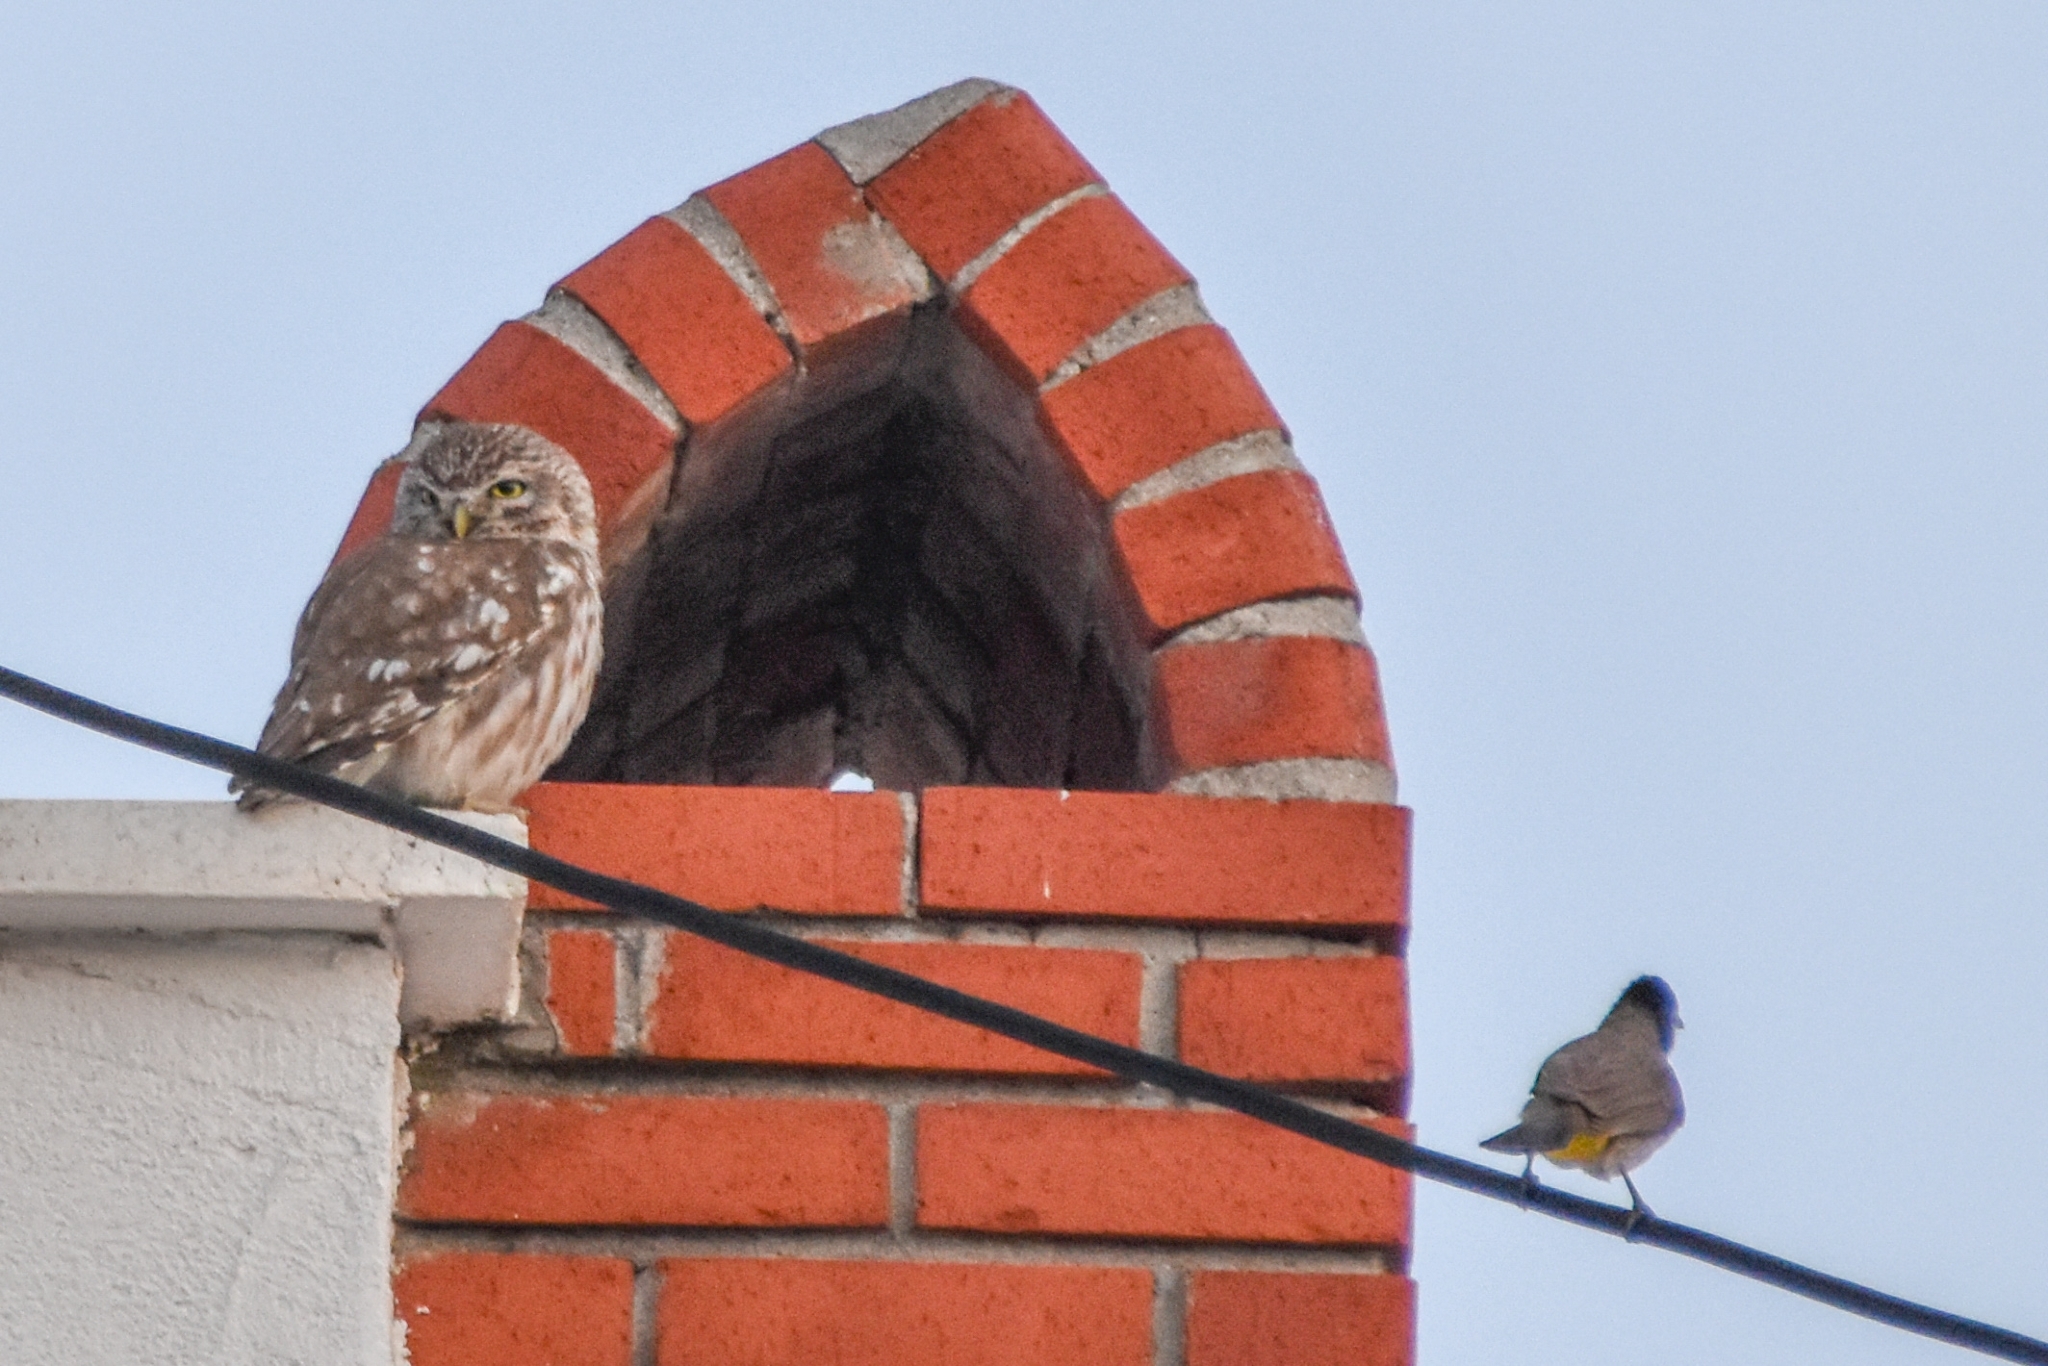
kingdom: Animalia
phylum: Chordata
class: Aves
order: Strigiformes
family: Strigidae
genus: Athene
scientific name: Athene noctua
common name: Little owl
